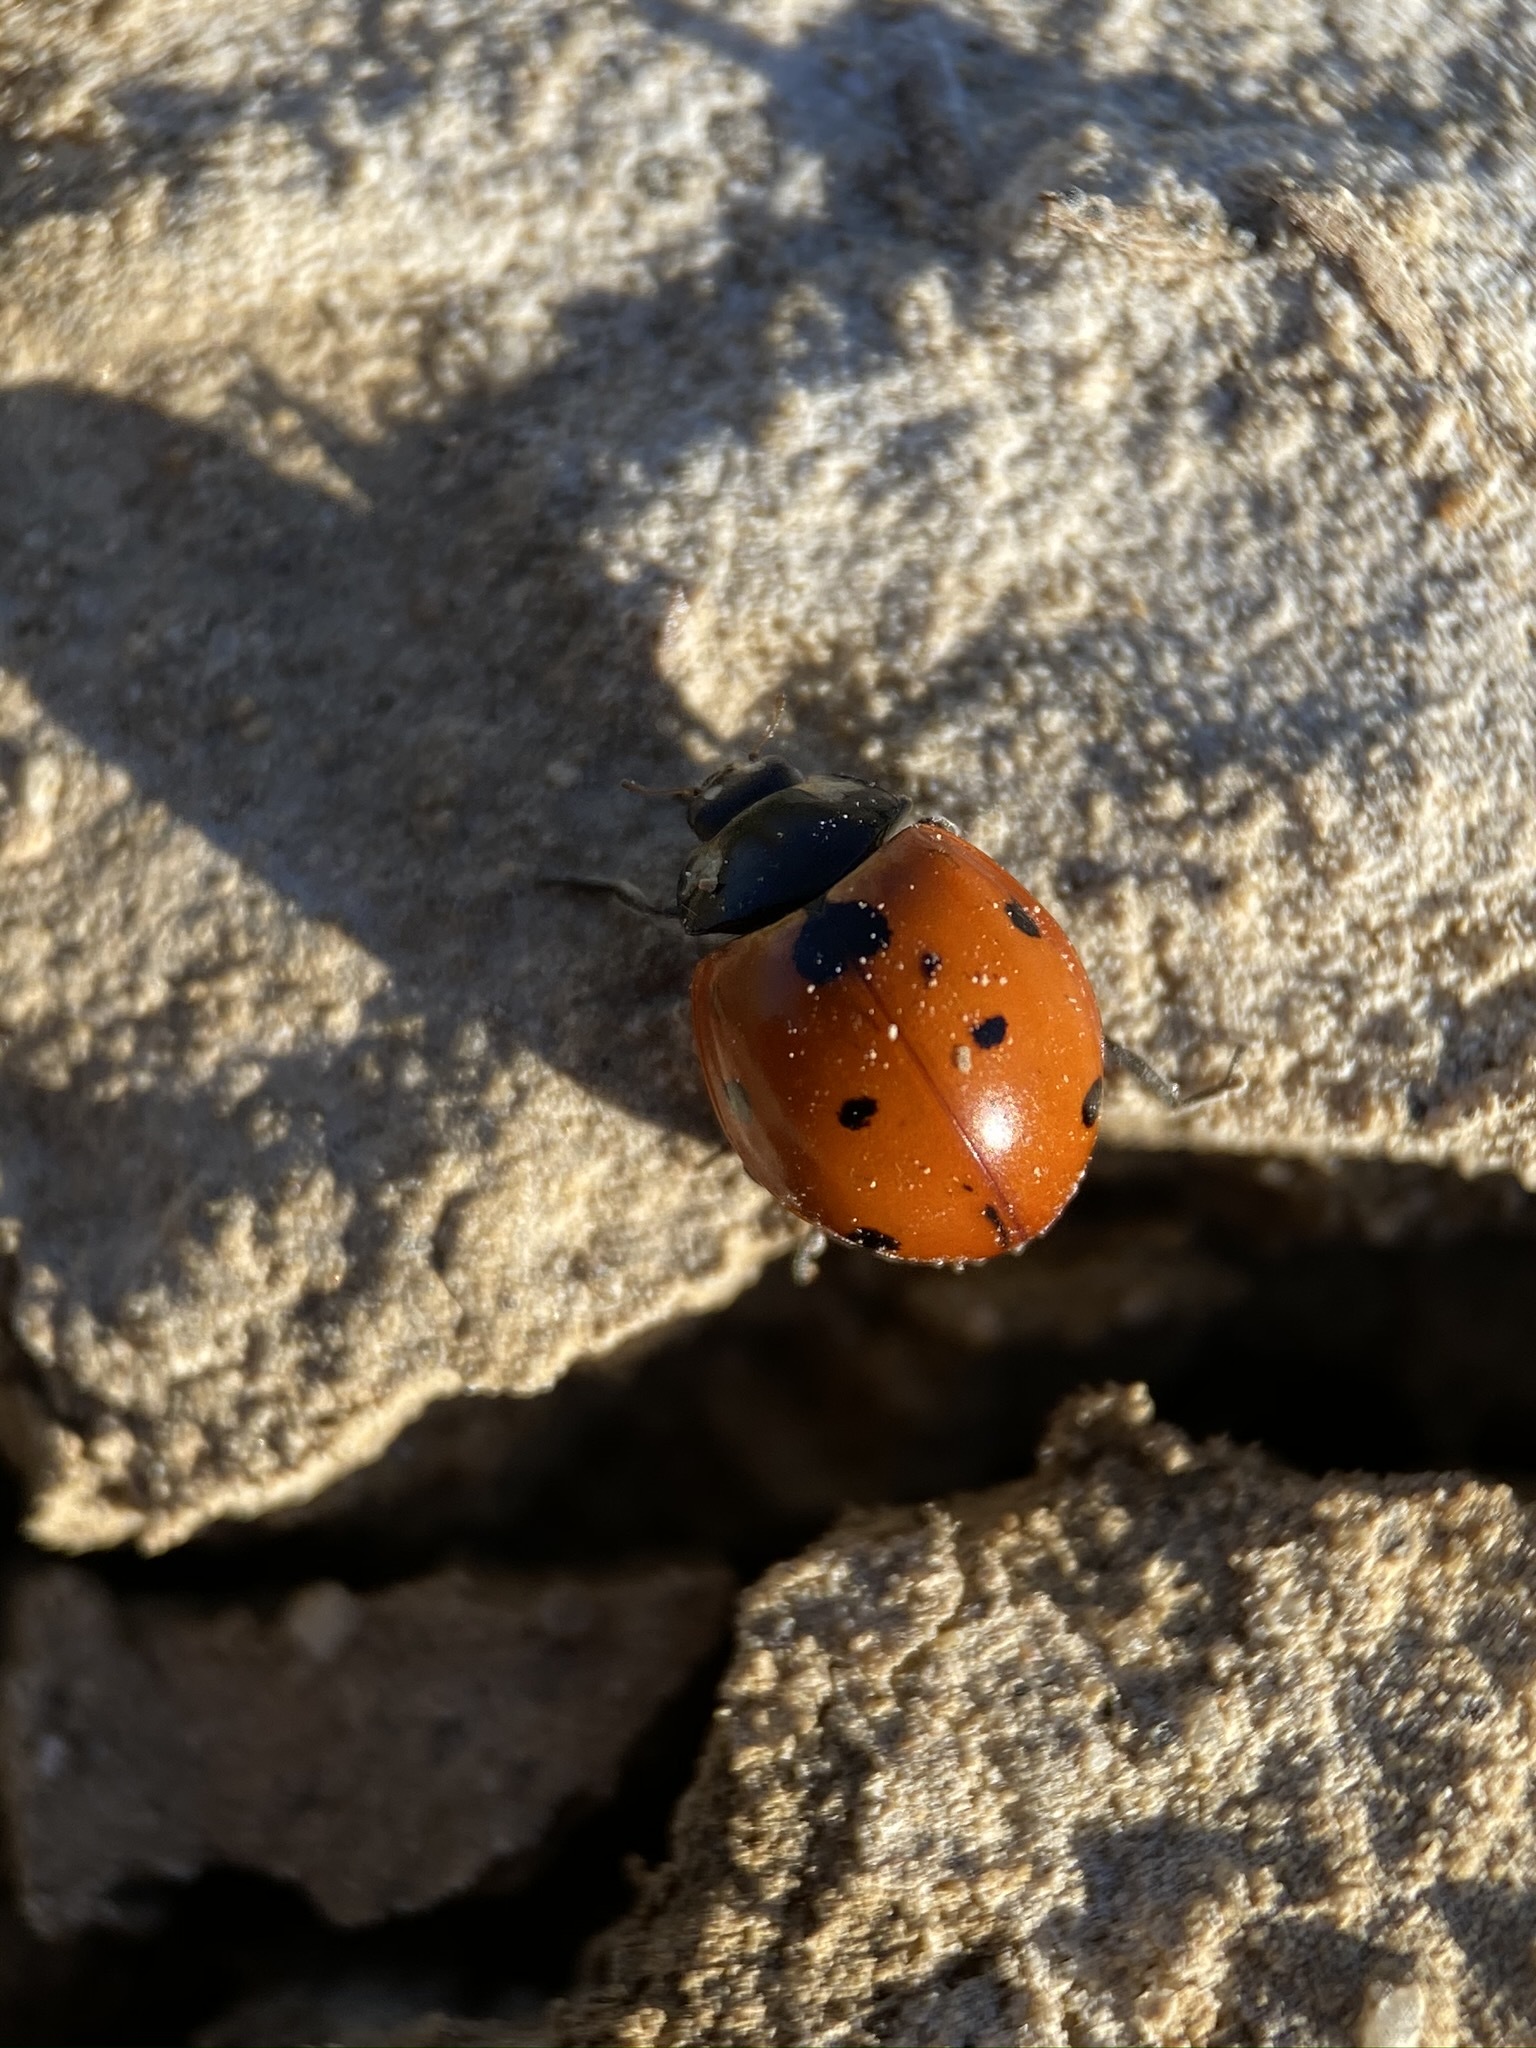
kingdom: Animalia
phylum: Arthropoda
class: Insecta
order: Coleoptera
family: Coccinellidae
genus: Coccinella
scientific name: Coccinella septempunctata
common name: Sevenspotted lady beetle
